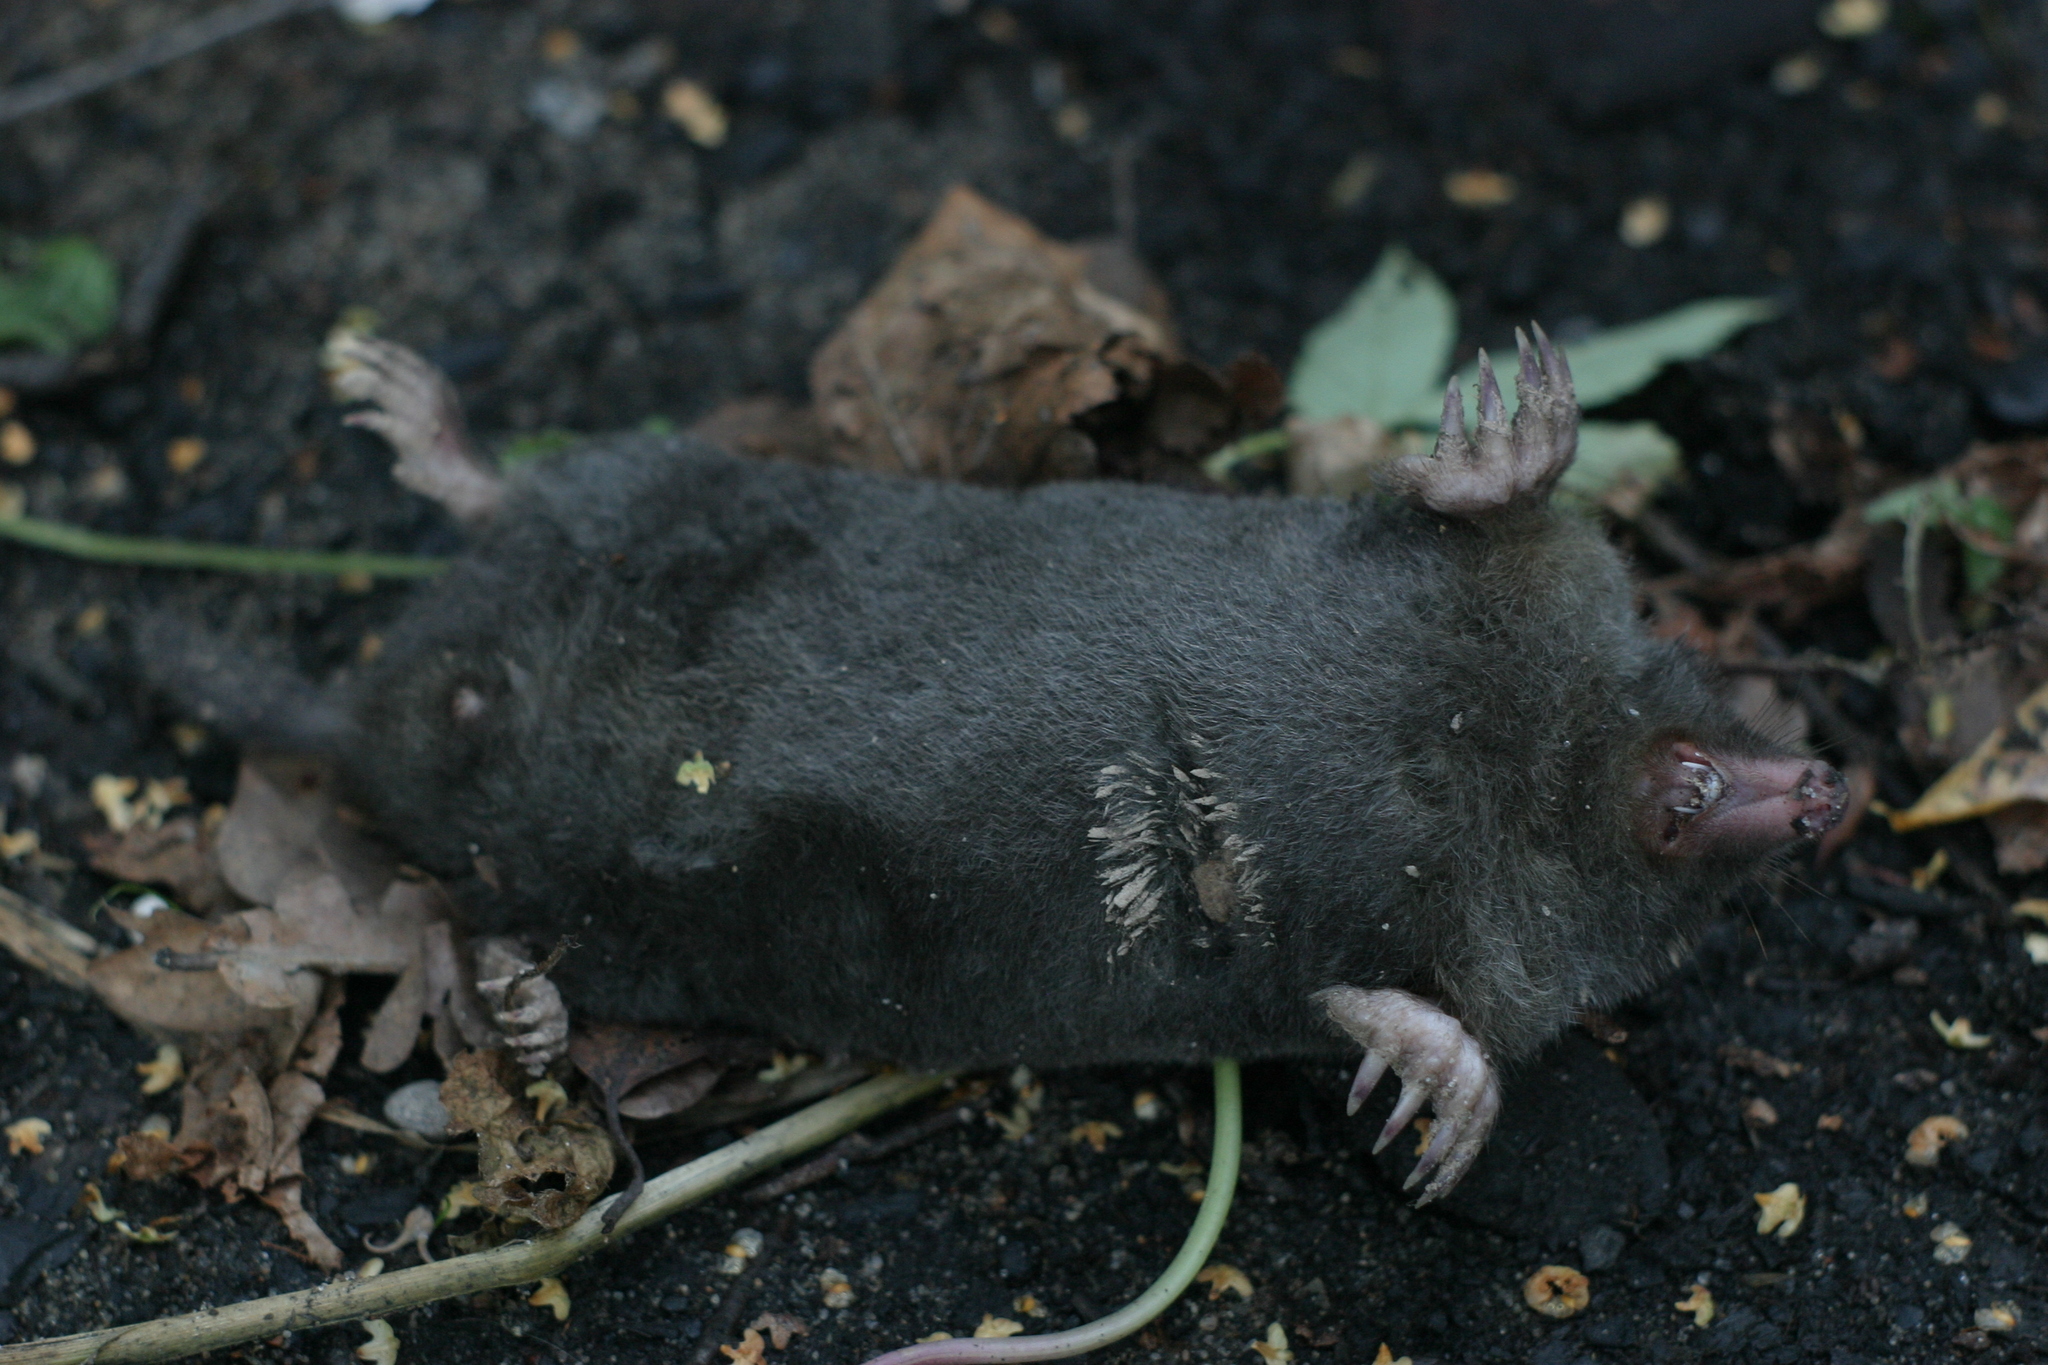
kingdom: Animalia
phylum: Chordata
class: Mammalia
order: Soricomorpha
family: Talpidae
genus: Talpa
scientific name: Talpa europaea
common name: European mole
